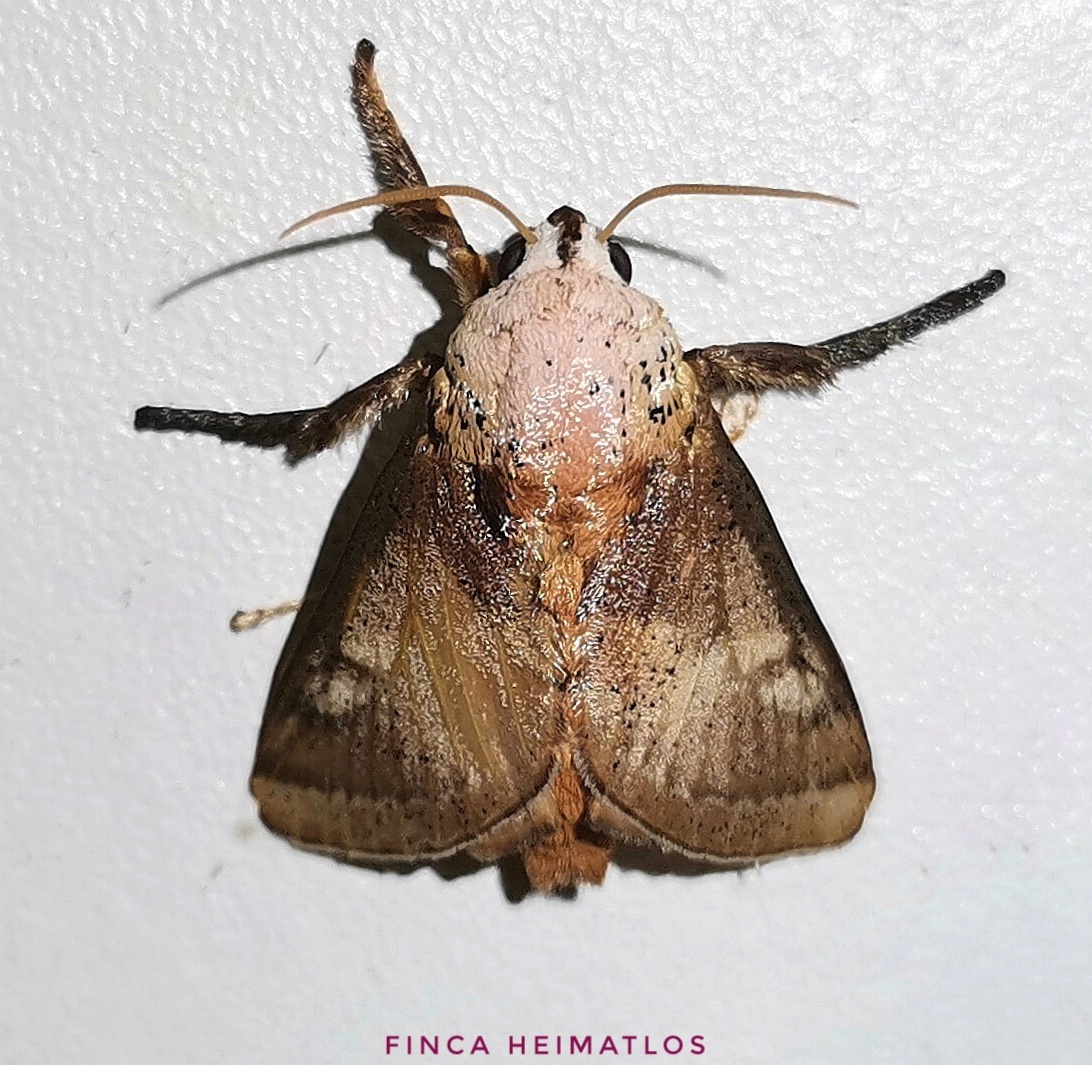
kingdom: Animalia
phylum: Arthropoda
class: Insecta
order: Lepidoptera
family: Limacodidae
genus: Pseudovipsania
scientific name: Pseudovipsania invera
